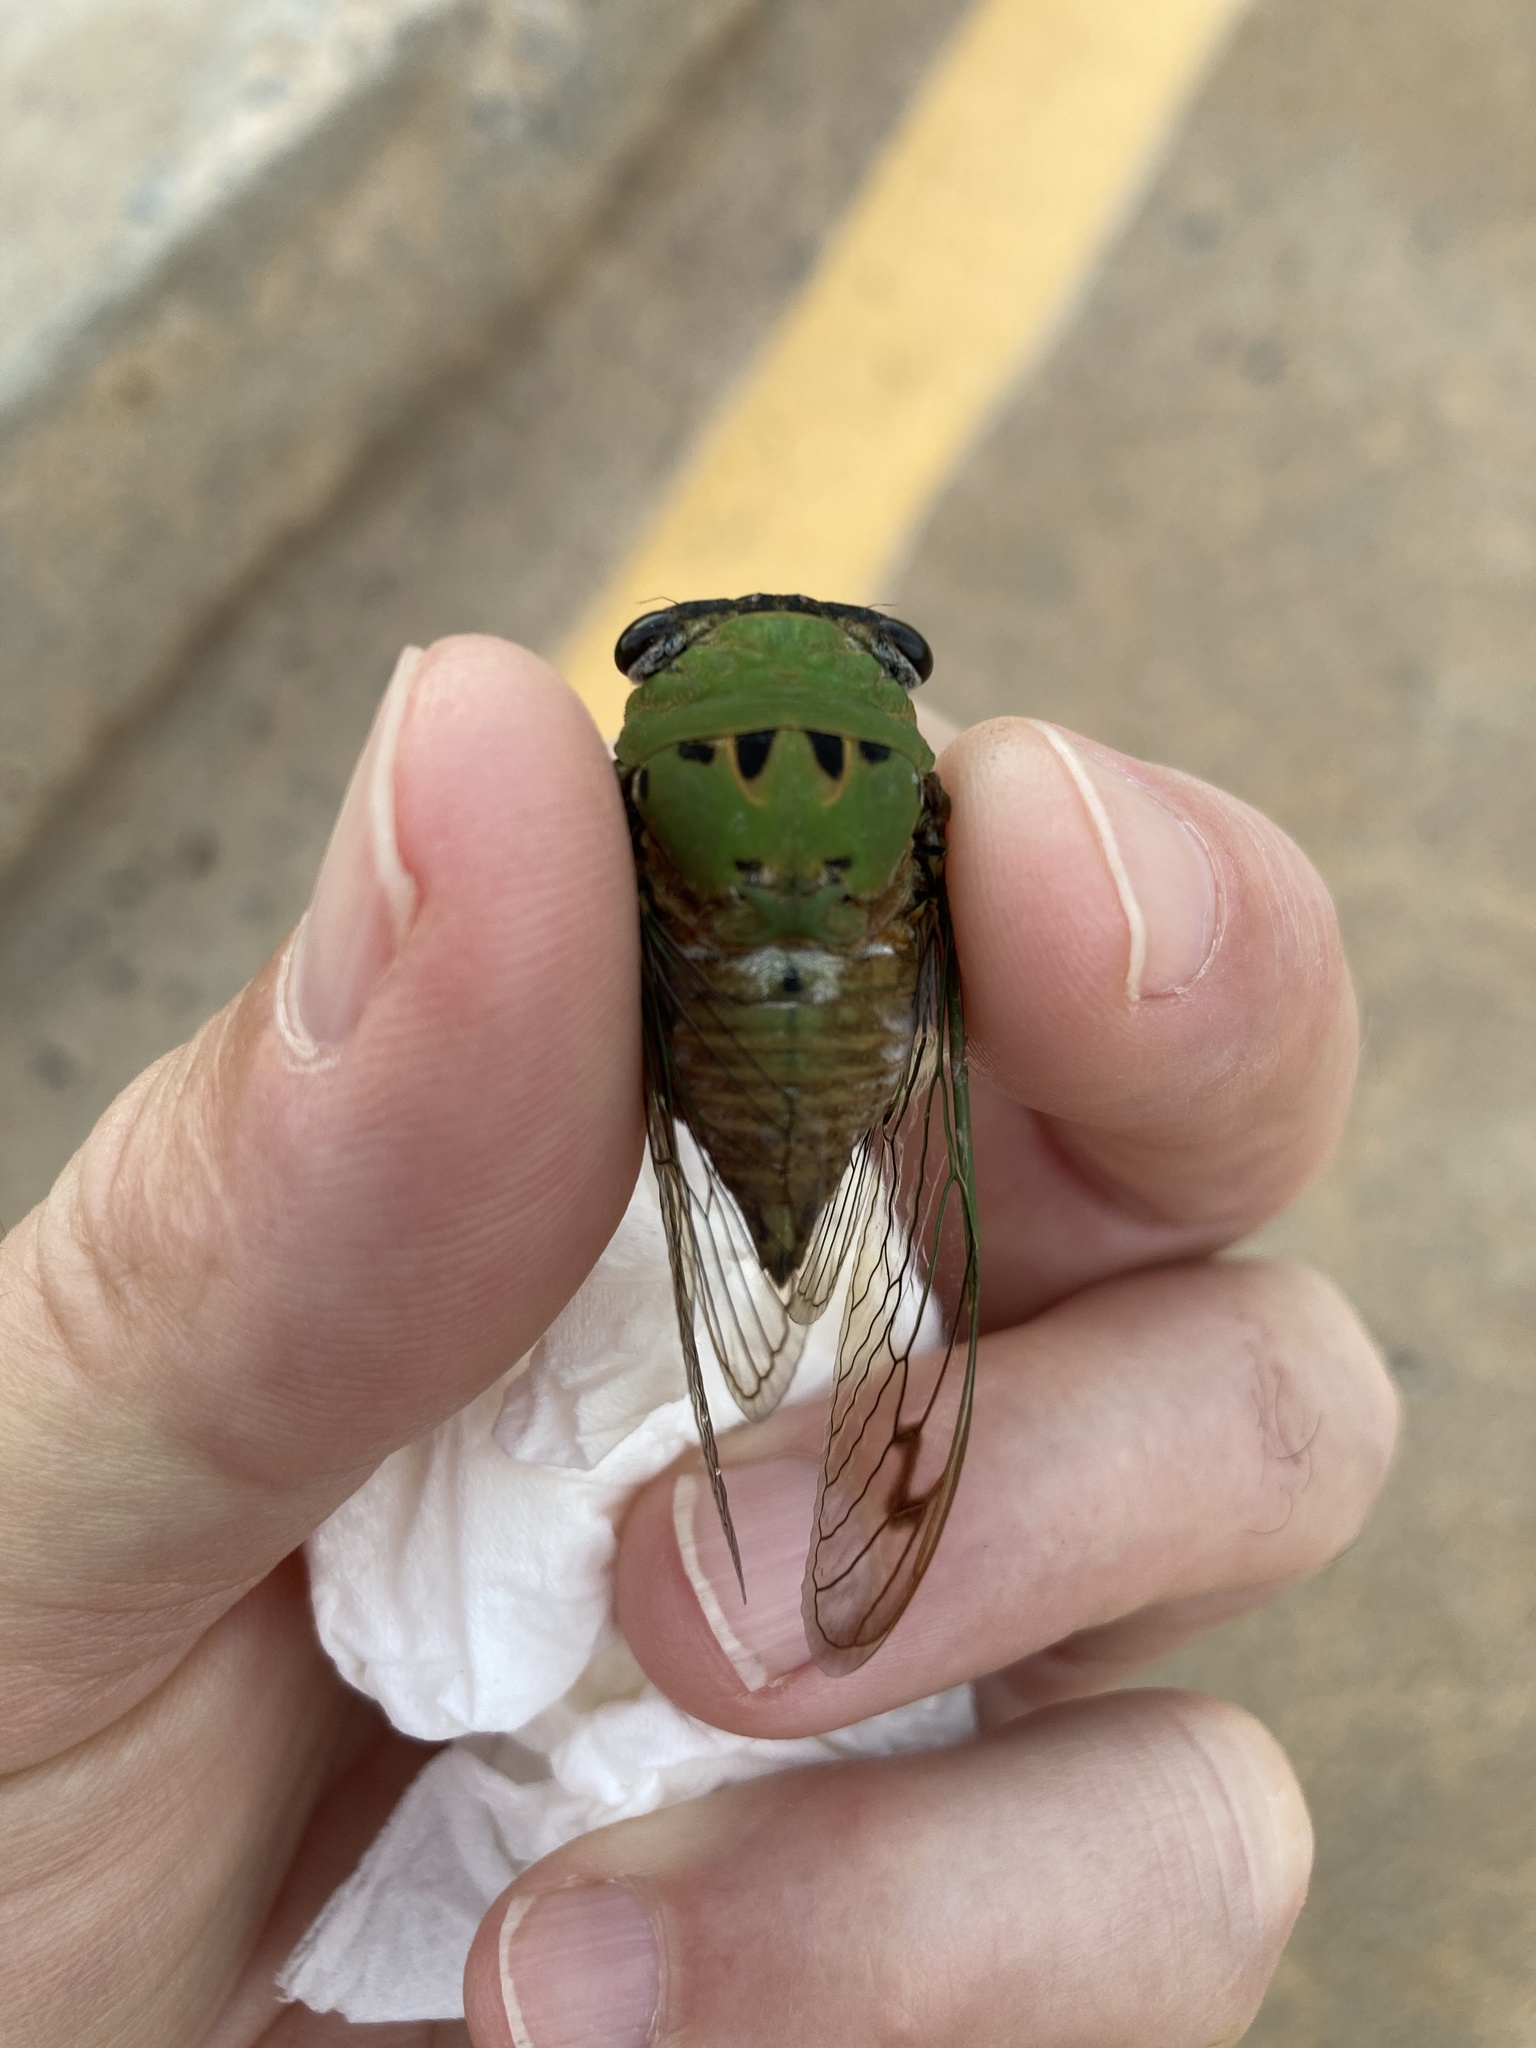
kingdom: Animalia
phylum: Arthropoda
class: Insecta
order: Hemiptera
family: Cicadidae
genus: Neotibicen
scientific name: Neotibicen superbus
